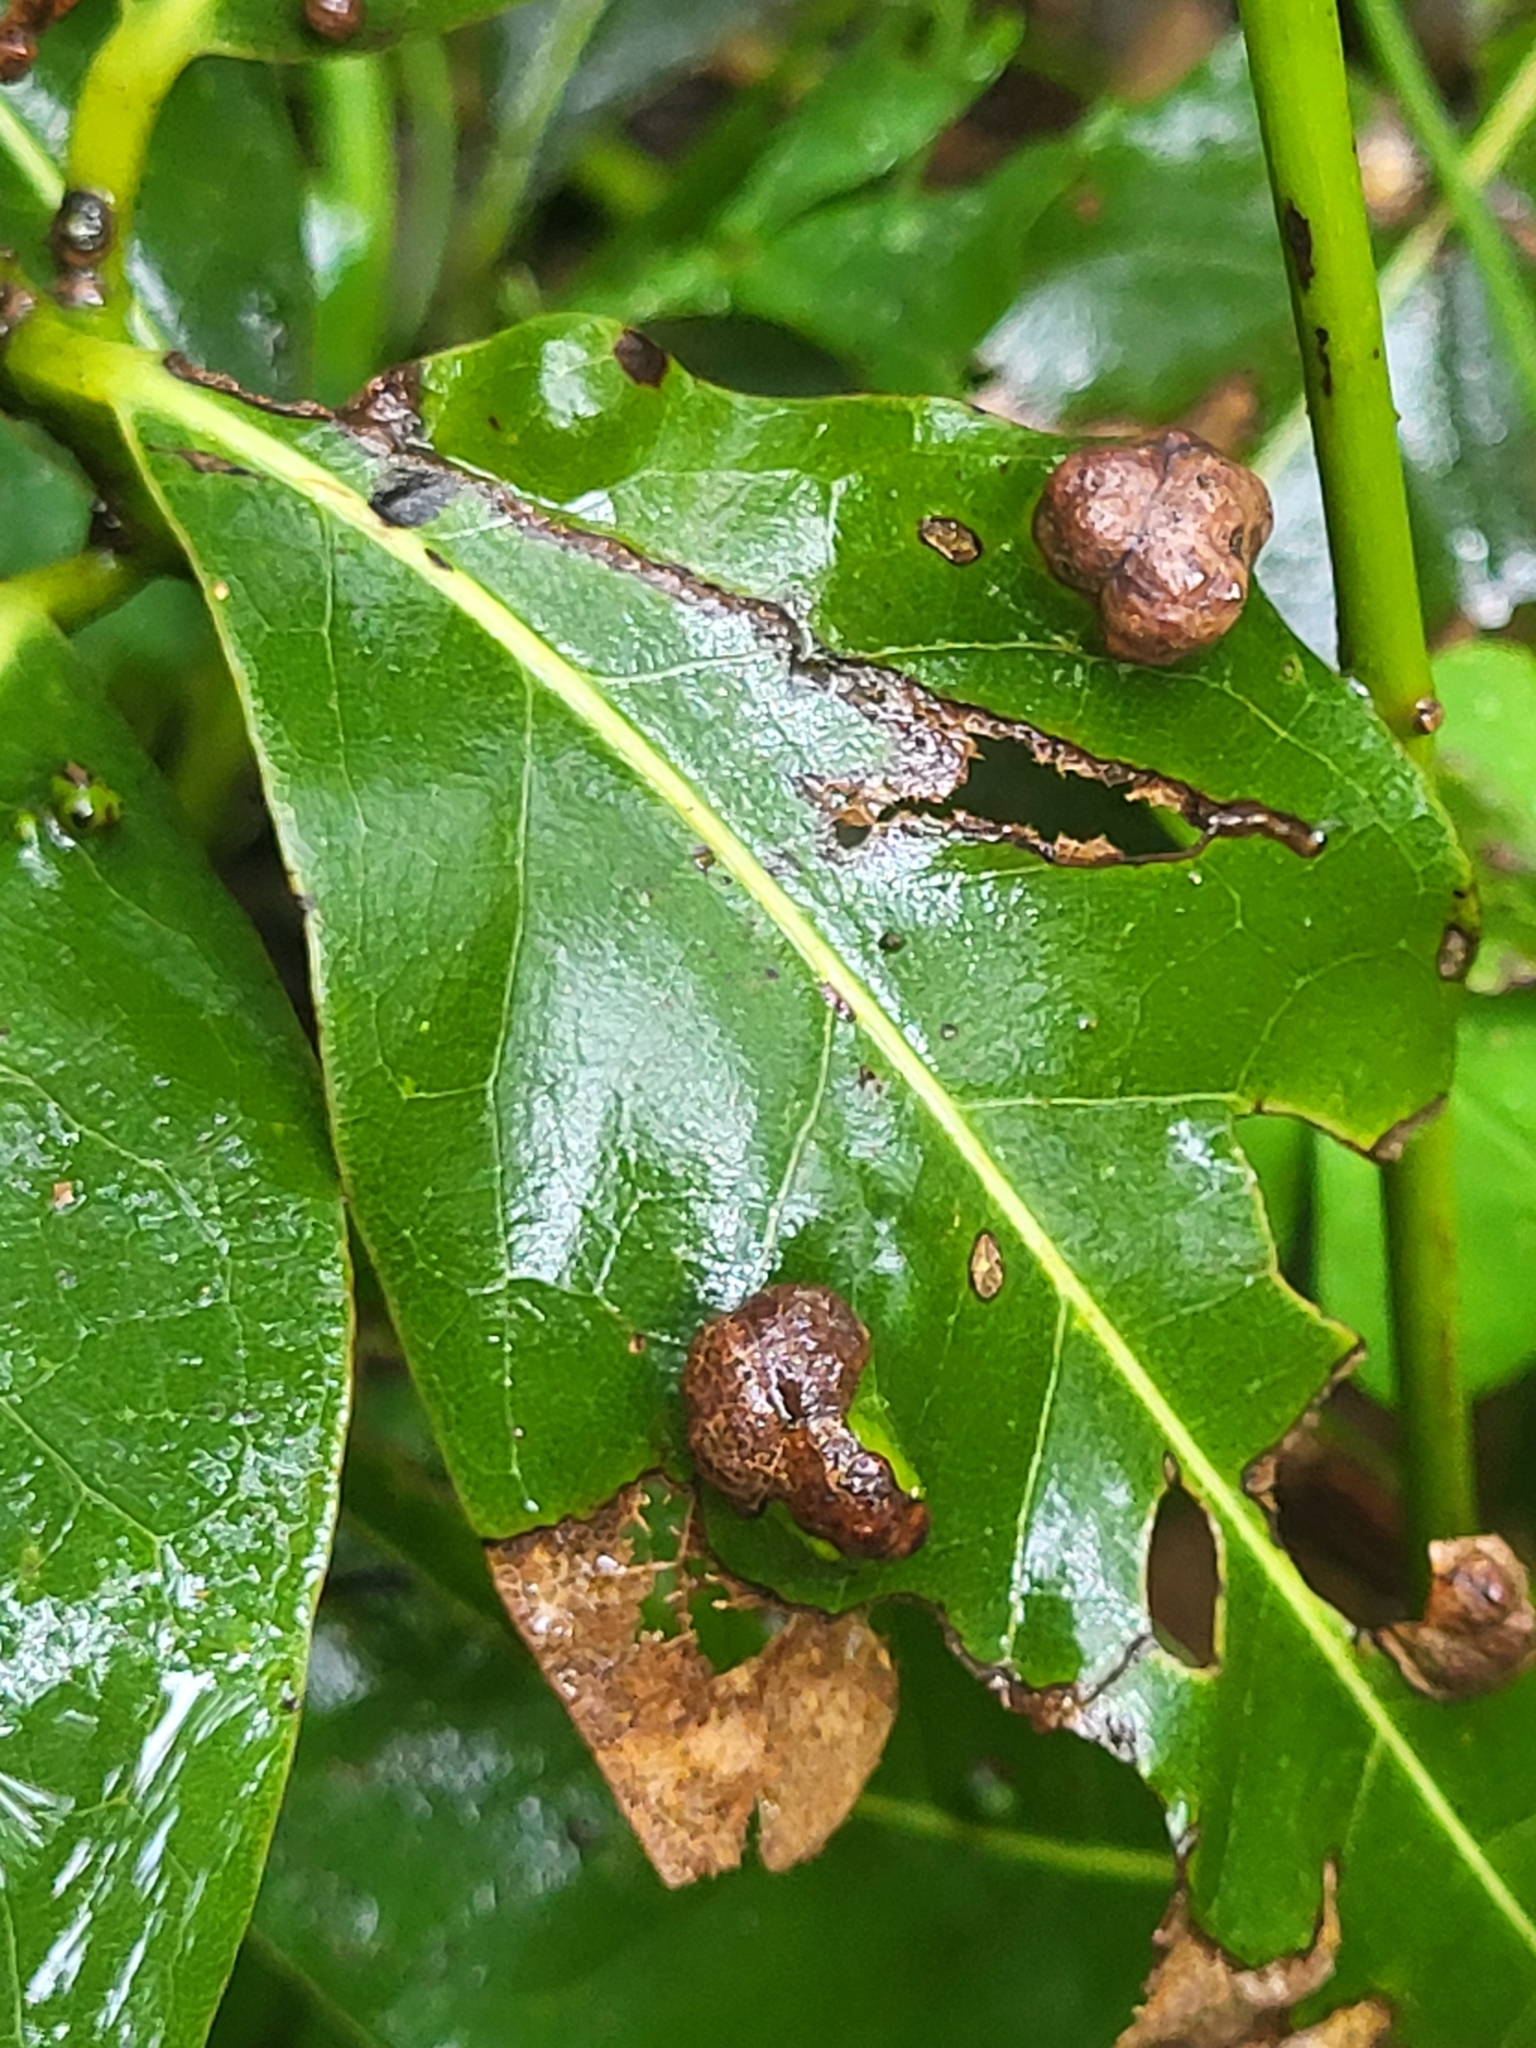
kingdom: Animalia
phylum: Arthropoda
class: Arachnida
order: Trombidiformes
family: Eriophyidae
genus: Aceria
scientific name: Aceria barbujanae
